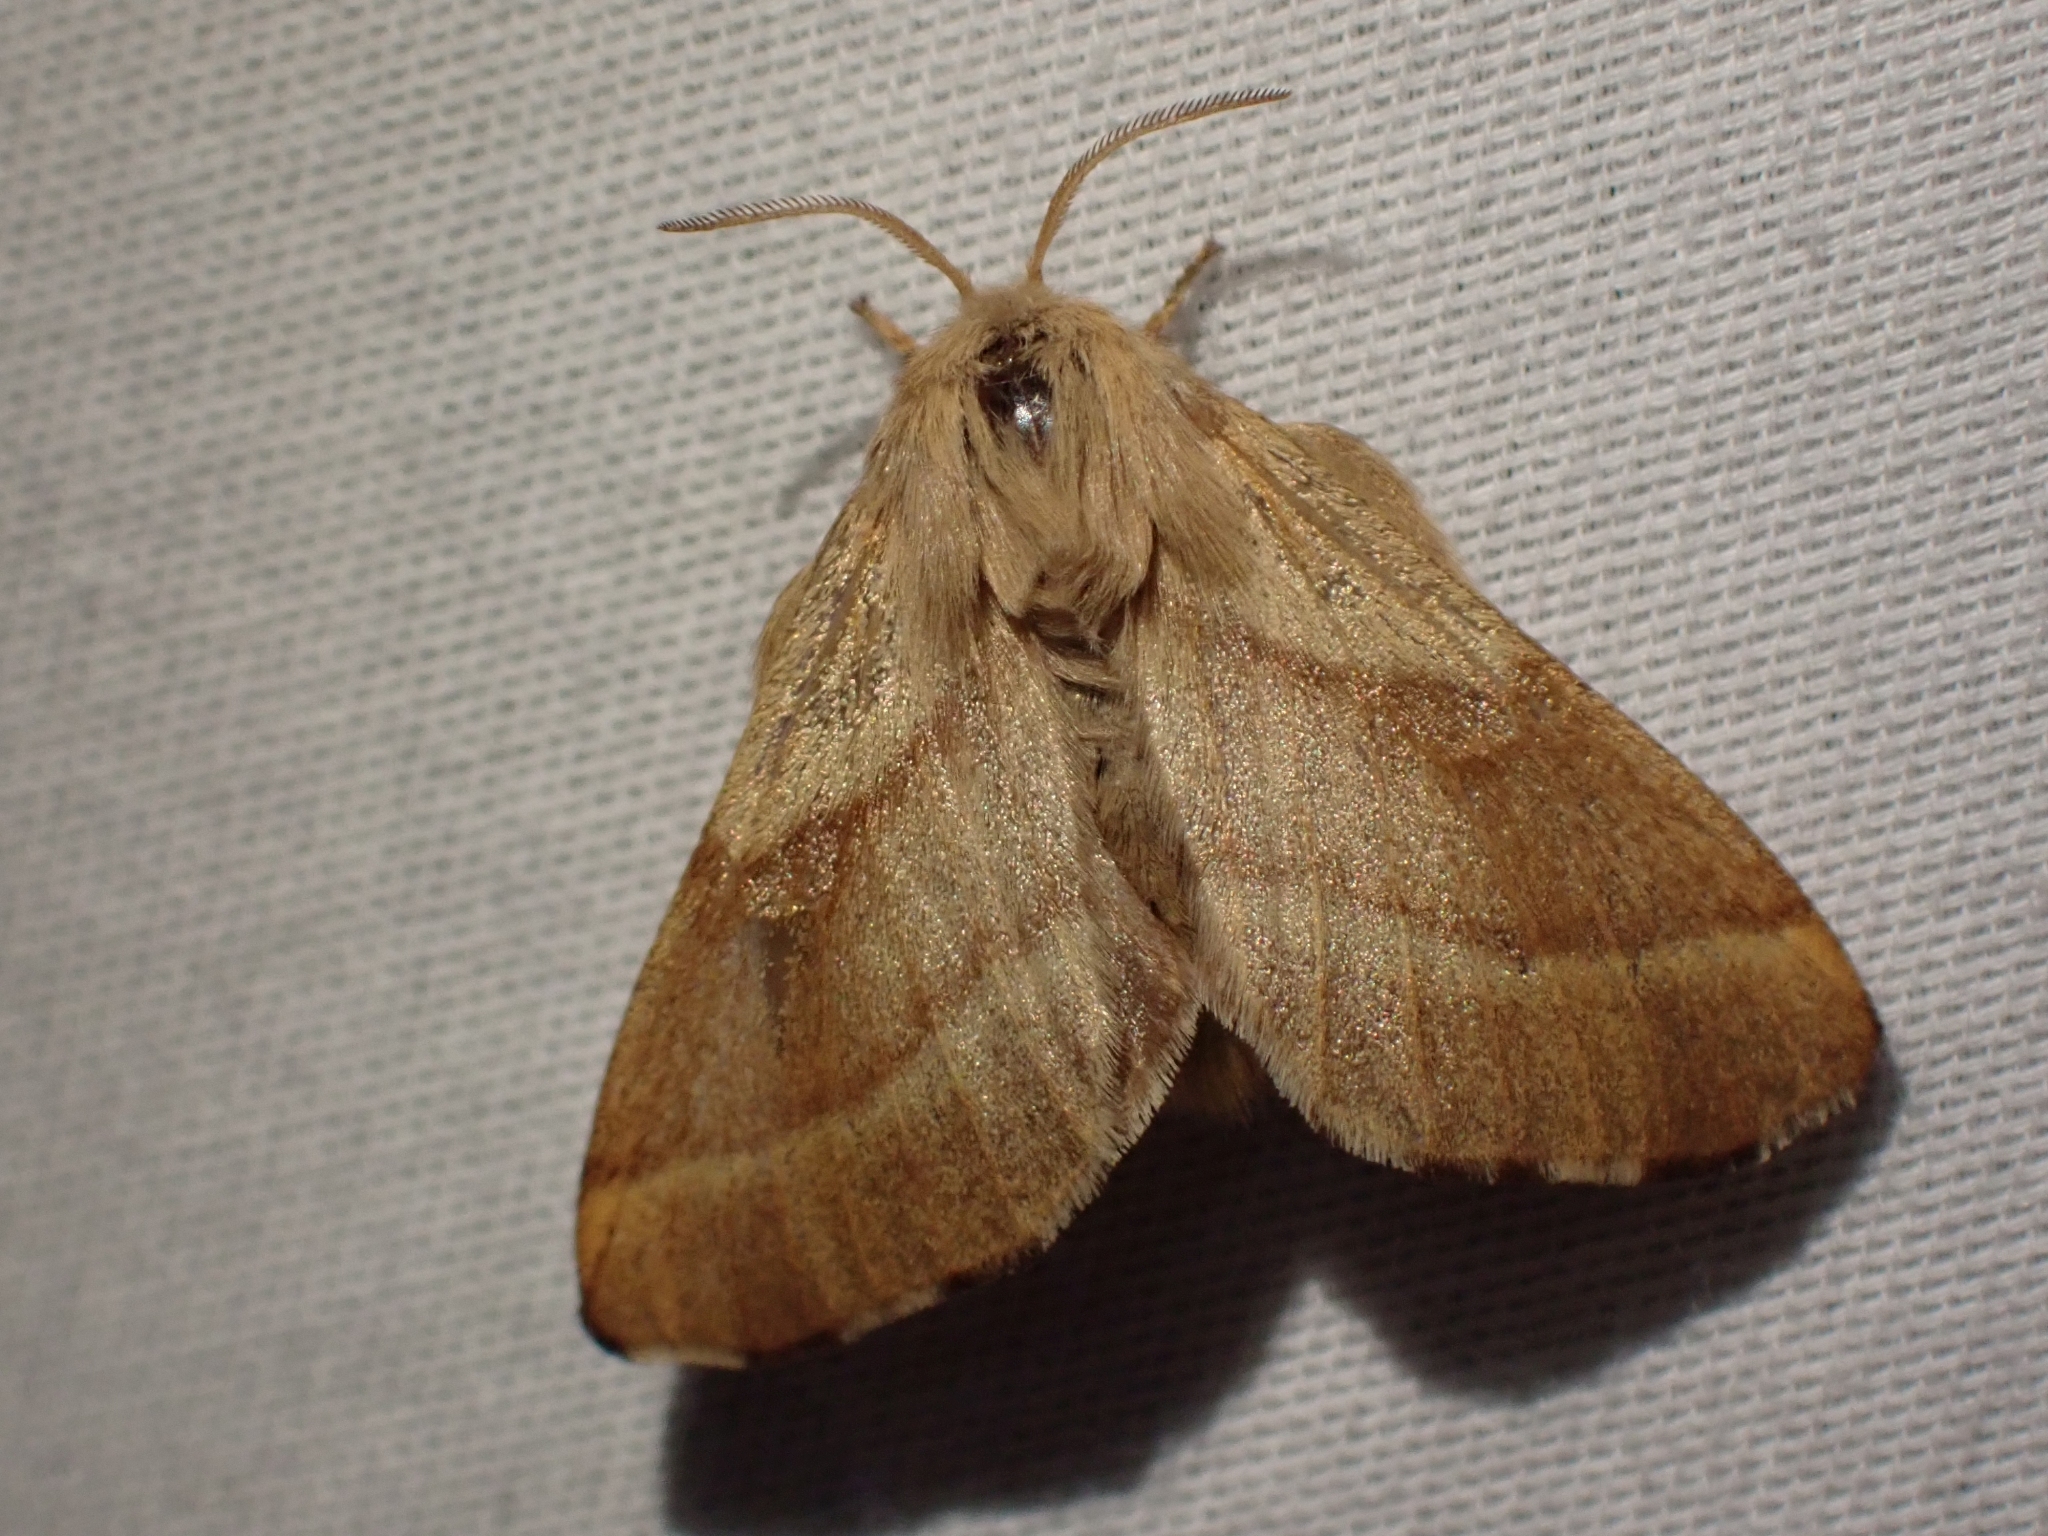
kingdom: Animalia
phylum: Arthropoda
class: Insecta
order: Lepidoptera
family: Lasiocampidae
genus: Malacosoma
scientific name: Malacosoma disstria
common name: Forest tent caterpillar
